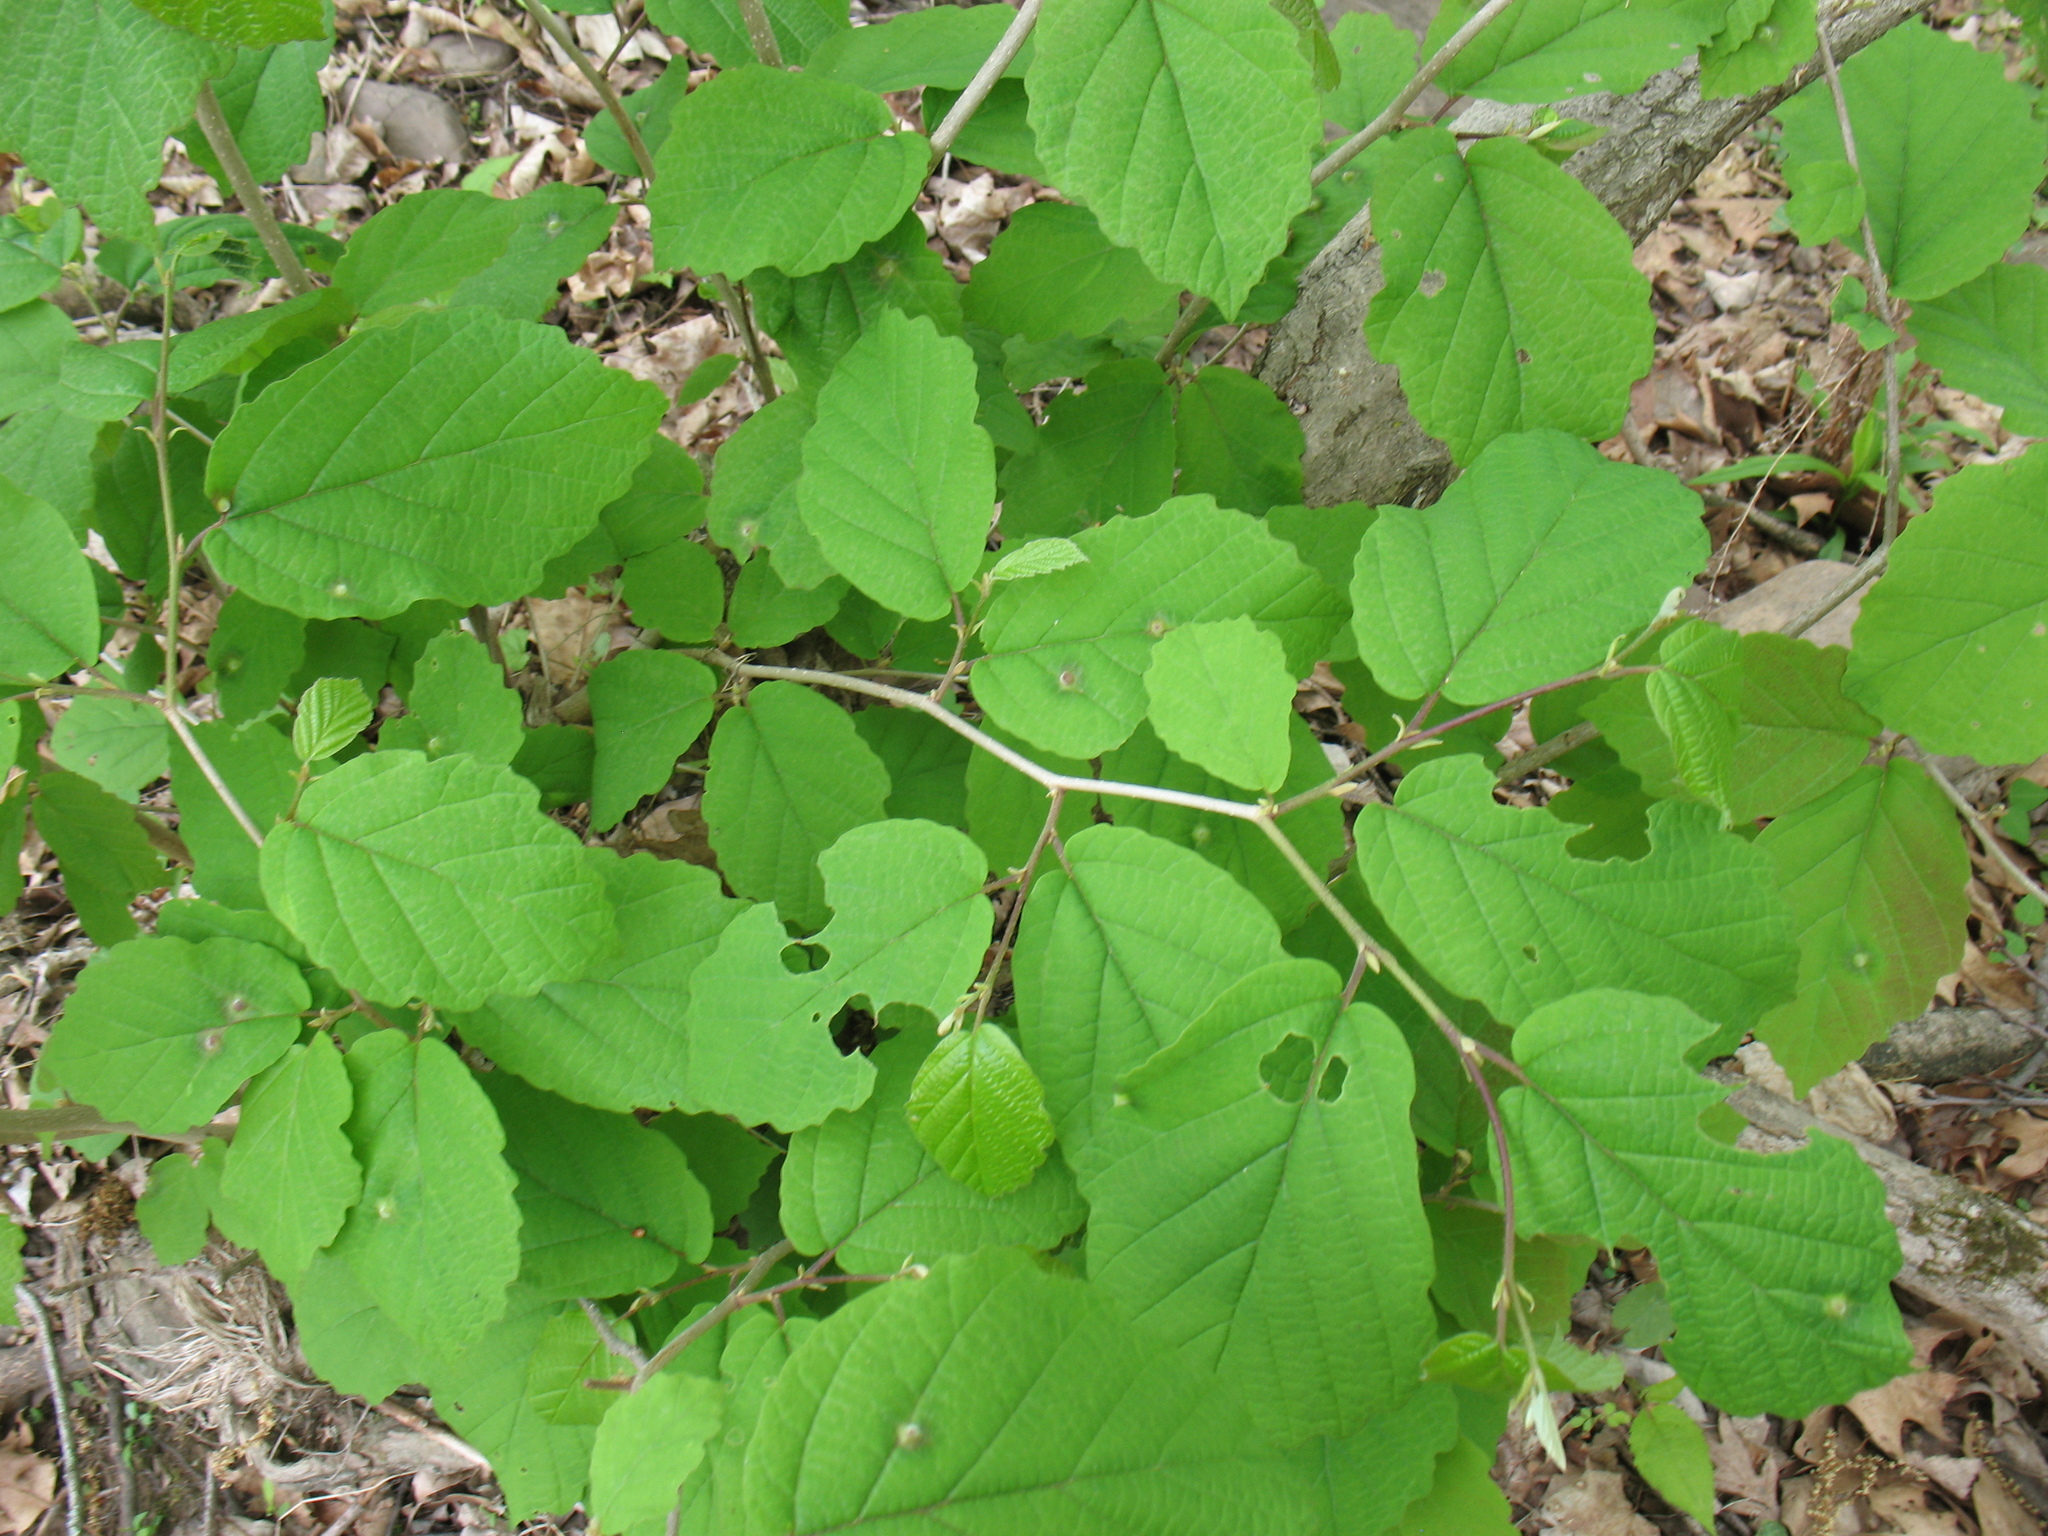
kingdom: Plantae
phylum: Tracheophyta
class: Magnoliopsida
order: Saxifragales
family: Hamamelidaceae
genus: Hamamelis
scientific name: Hamamelis virginiana
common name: Witch-hazel
